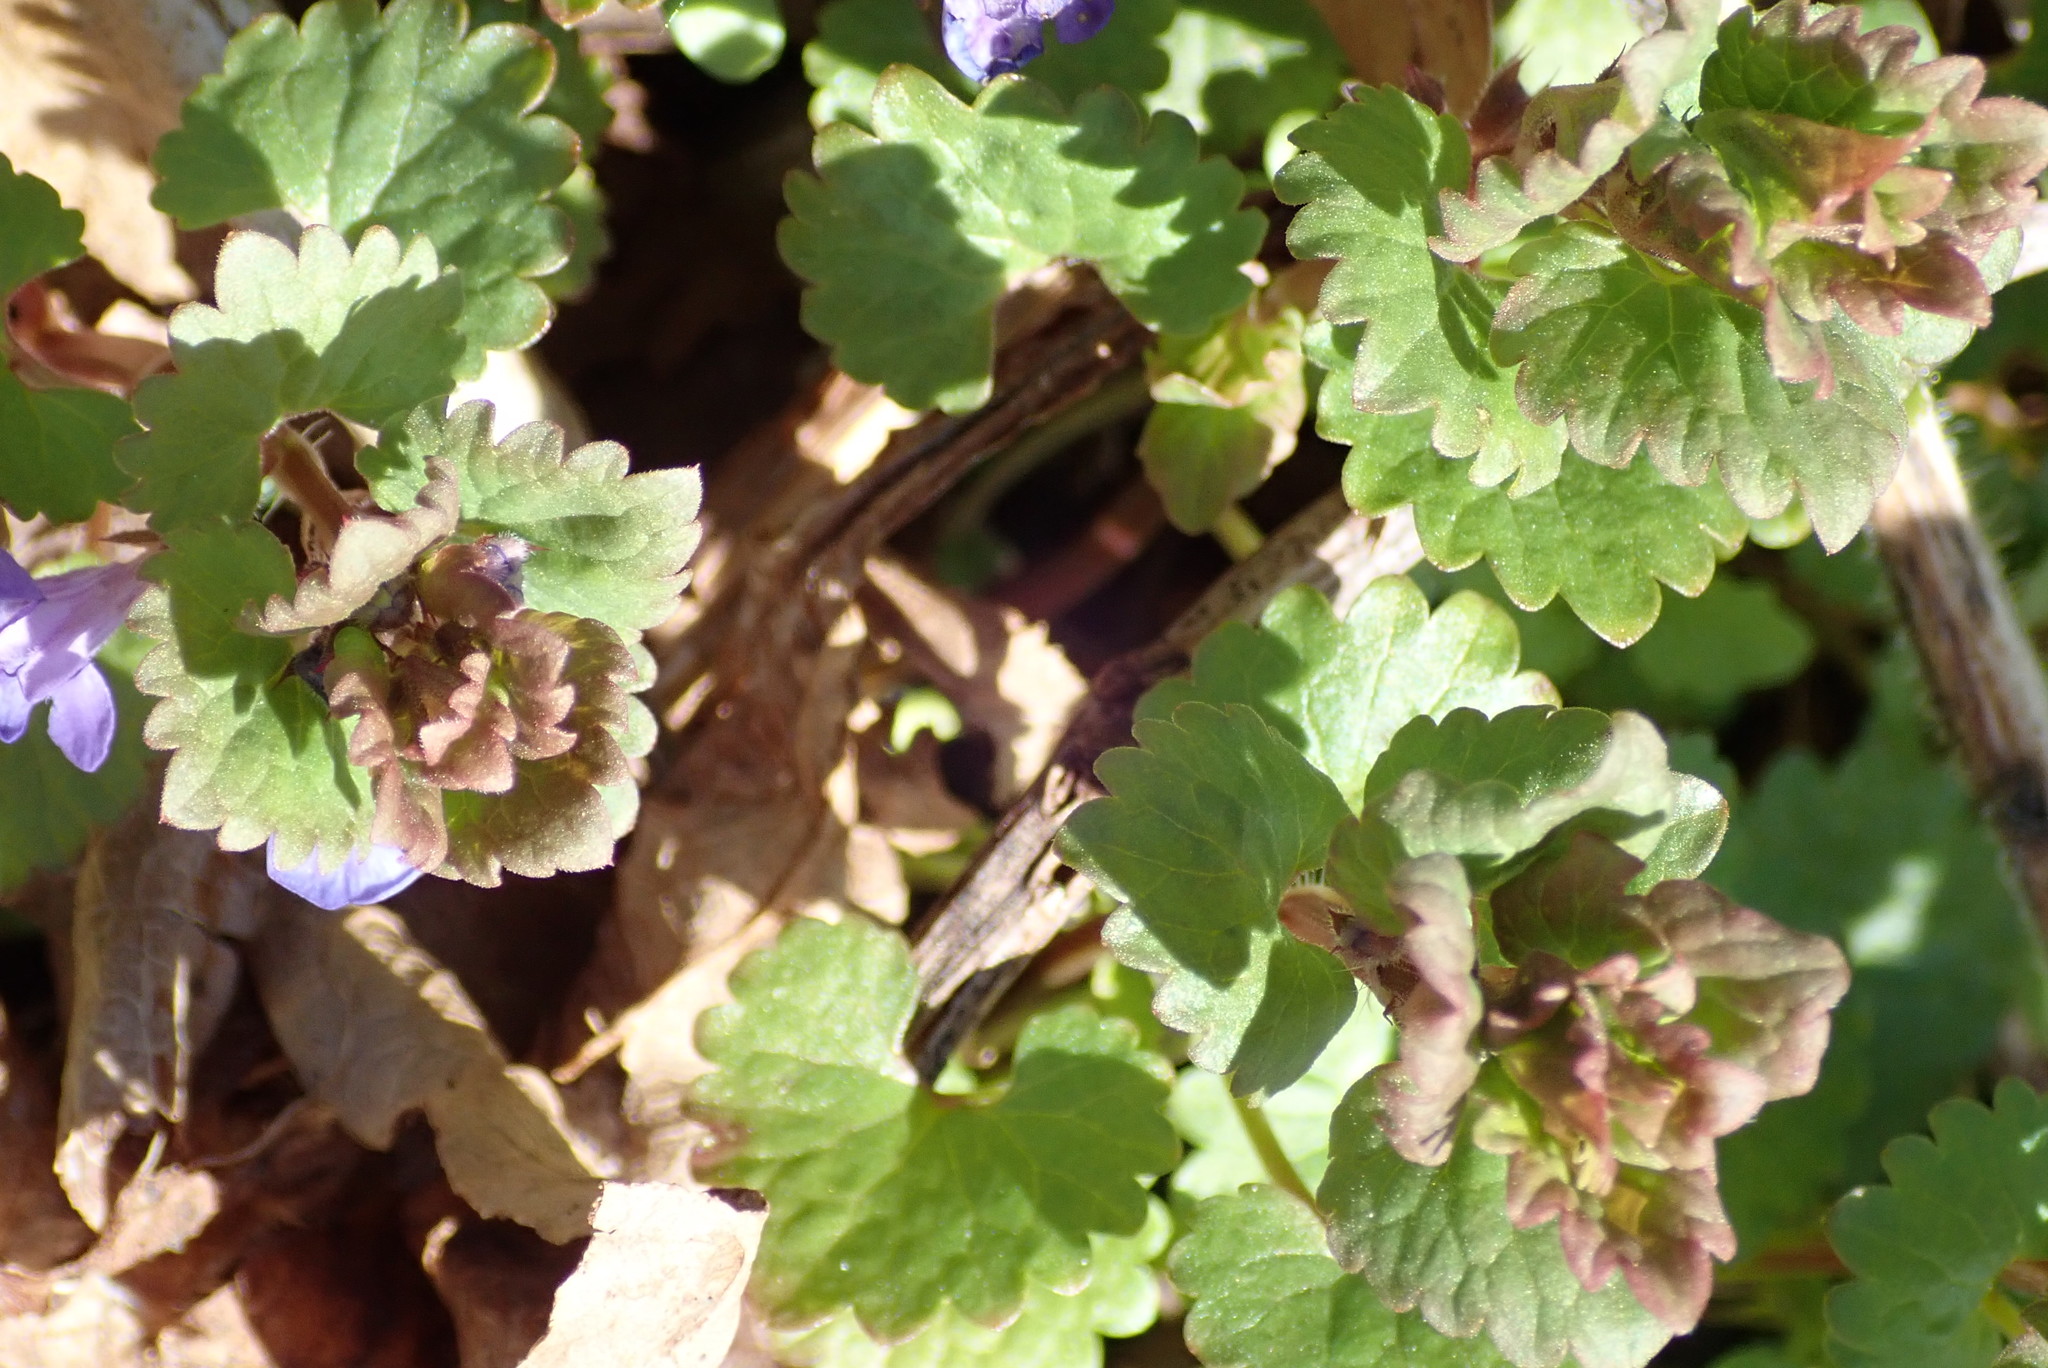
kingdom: Plantae
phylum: Tracheophyta
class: Magnoliopsida
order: Lamiales
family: Lamiaceae
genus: Glechoma
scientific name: Glechoma hederacea
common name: Ground ivy
